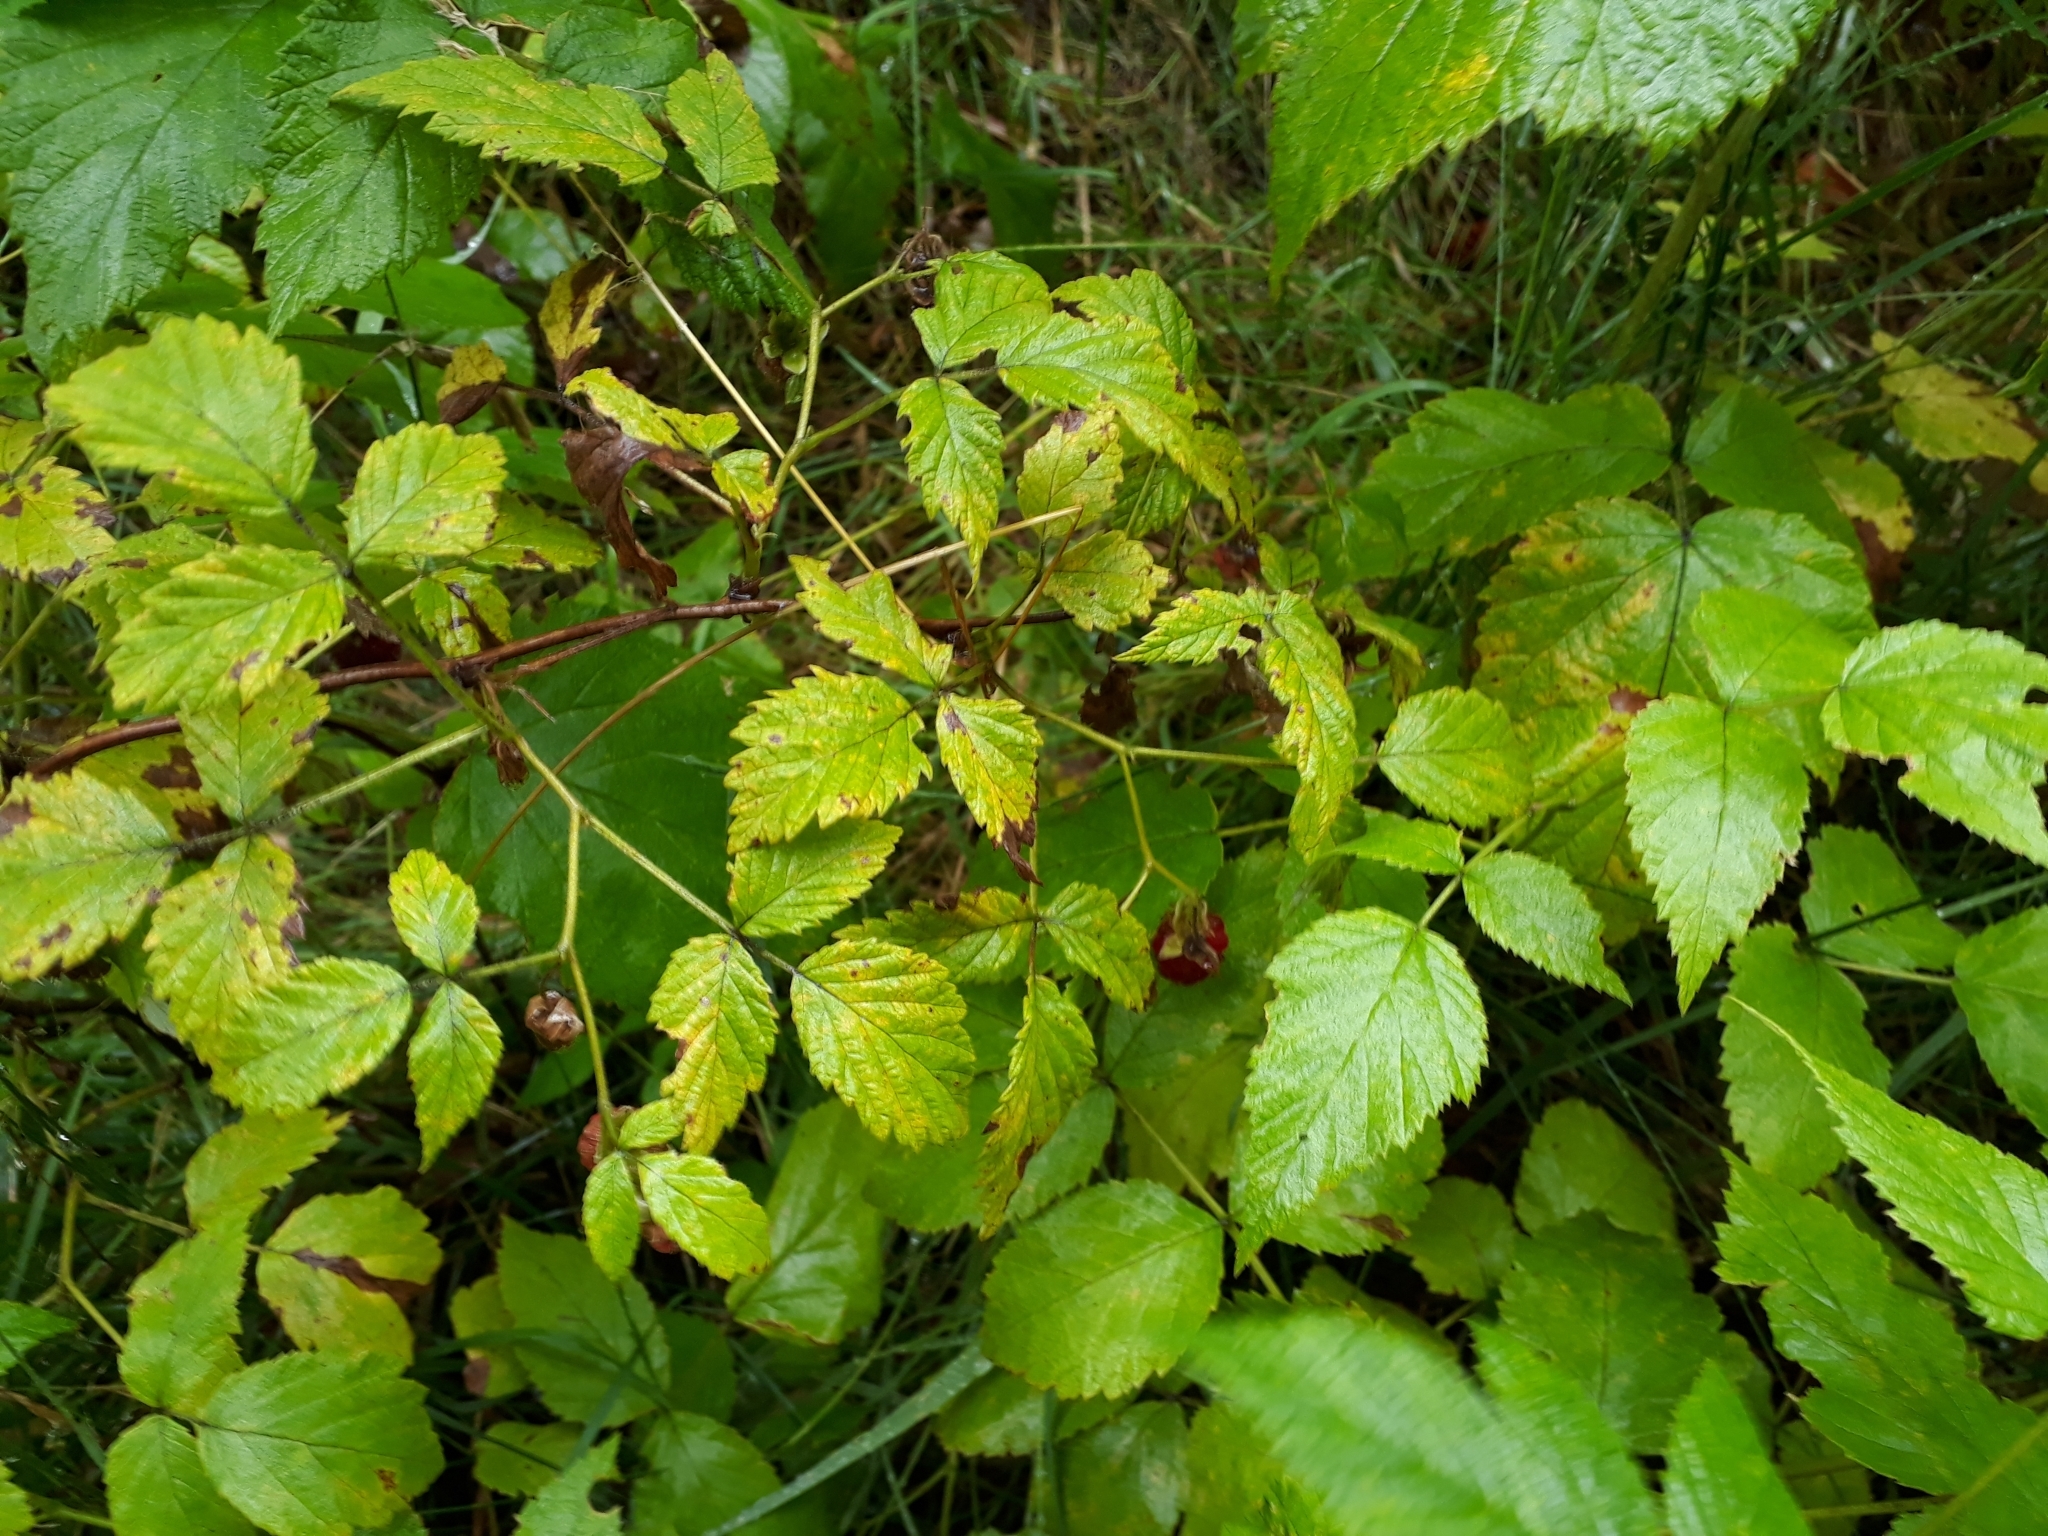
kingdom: Plantae
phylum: Tracheophyta
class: Magnoliopsida
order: Rosales
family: Rosaceae
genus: Rubus
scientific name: Rubus idaeus
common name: Raspberry
